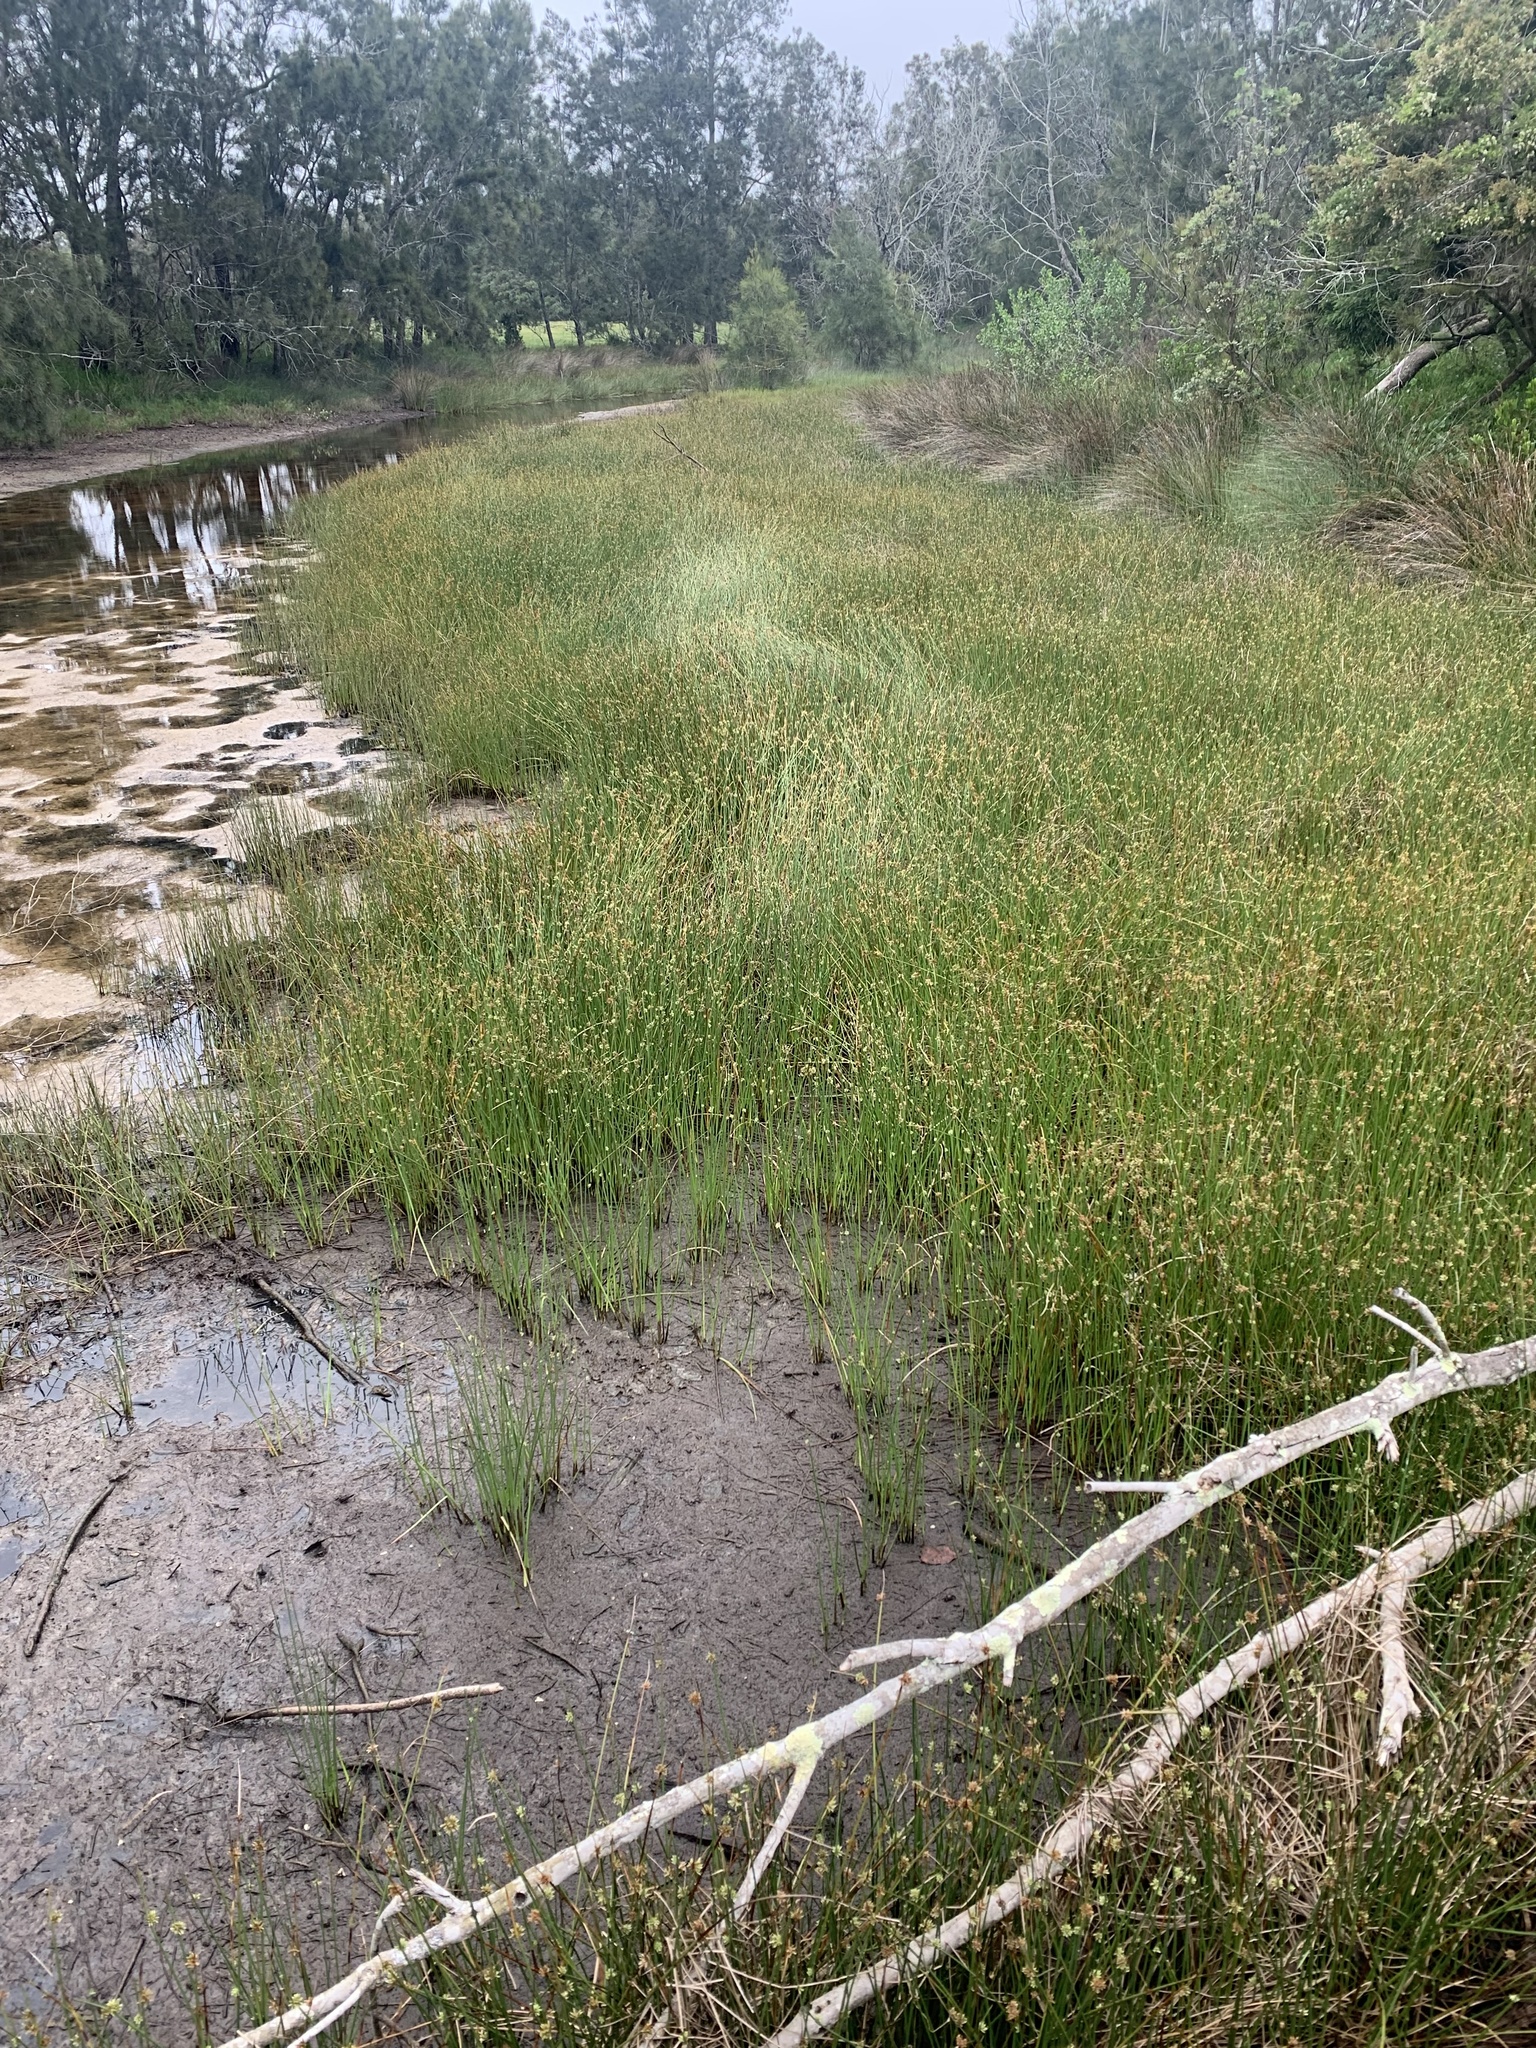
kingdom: Plantae
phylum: Tracheophyta
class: Liliopsida
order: Poales
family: Cyperaceae
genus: Cyperus
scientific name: Cyperus laevigatus
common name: Smooth flat sedge
